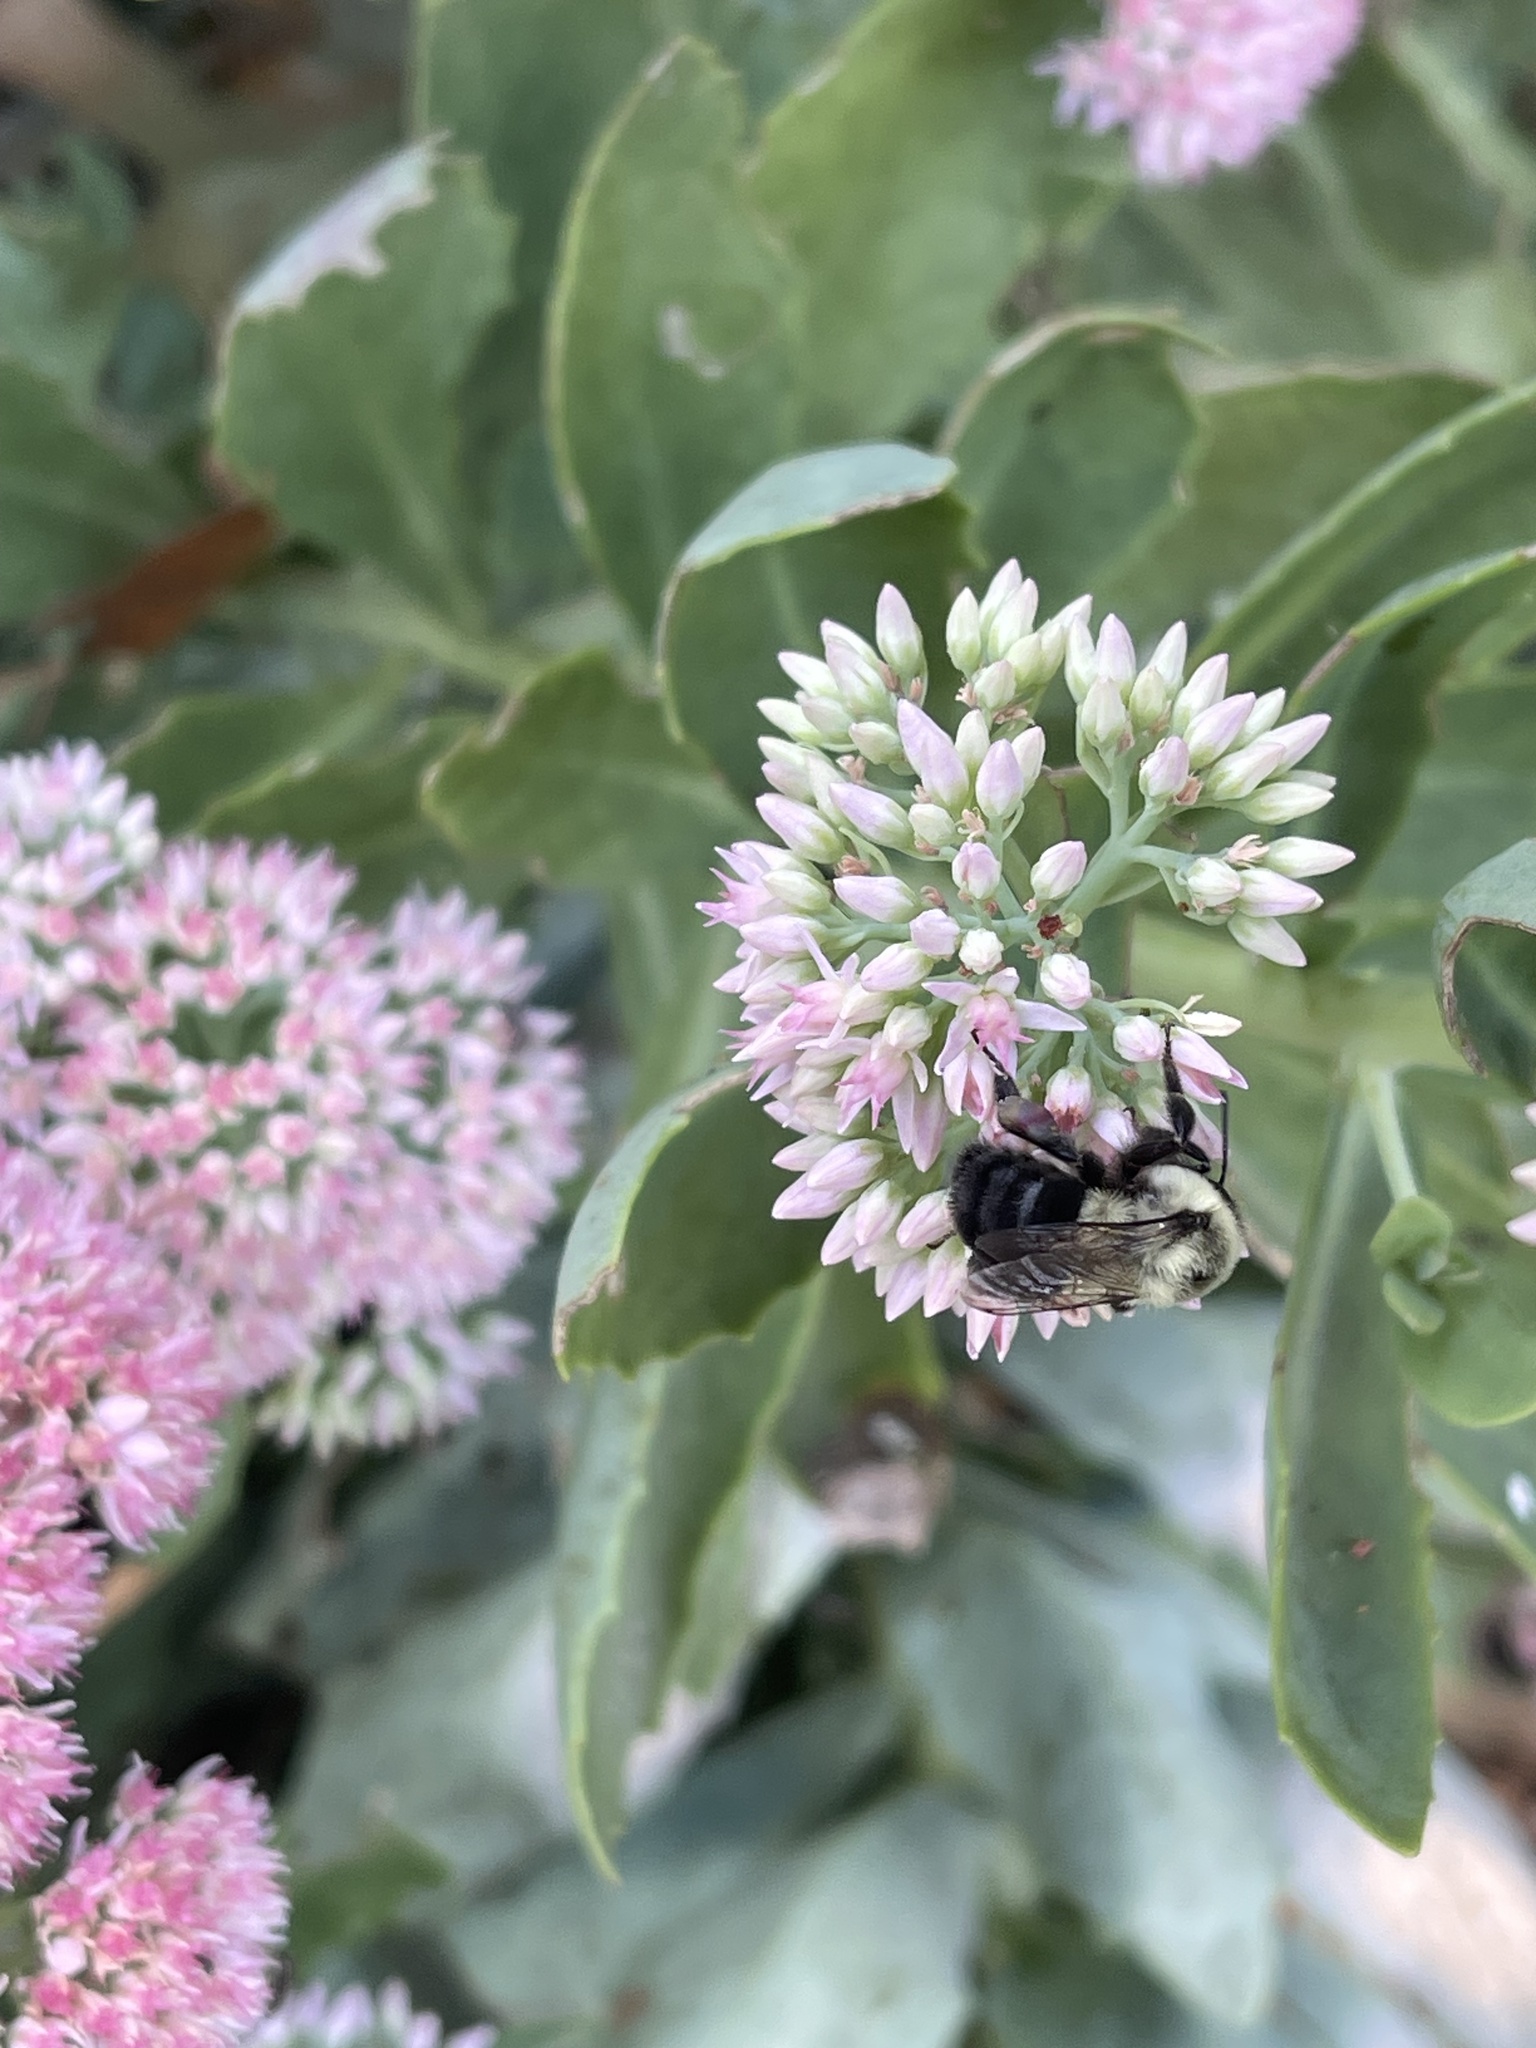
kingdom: Animalia
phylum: Arthropoda
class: Insecta
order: Hymenoptera
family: Apidae
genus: Bombus
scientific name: Bombus impatiens
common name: Common eastern bumble bee
